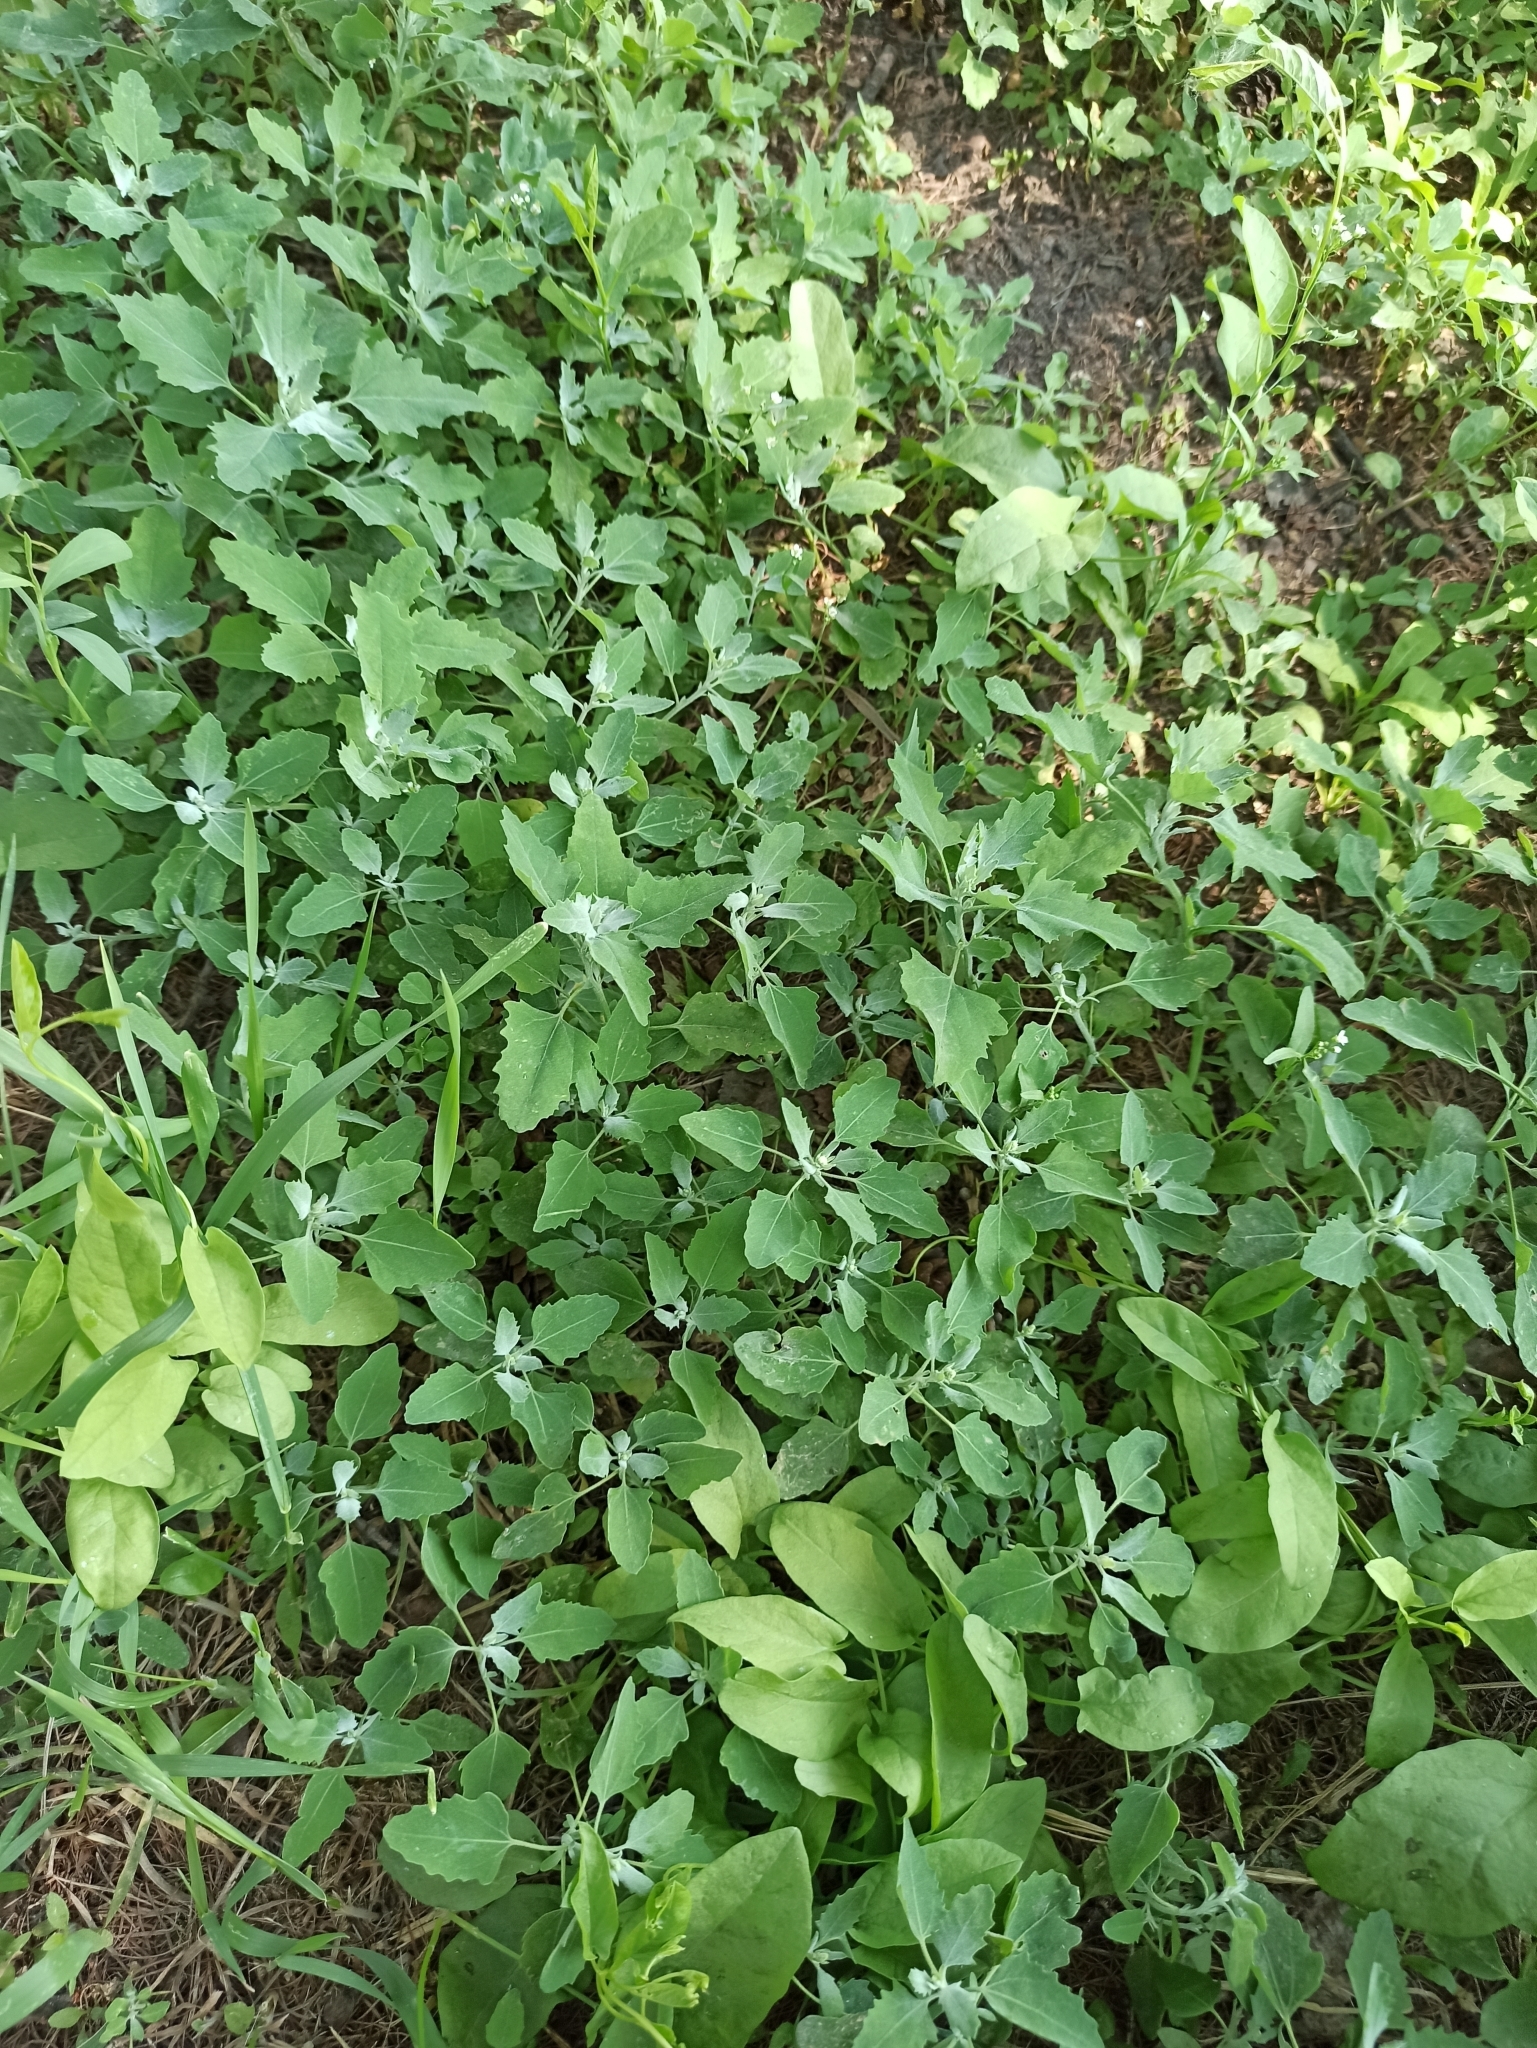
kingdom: Plantae
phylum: Tracheophyta
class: Magnoliopsida
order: Caryophyllales
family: Amaranthaceae
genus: Chenopodium
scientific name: Chenopodium album
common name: Fat-hen
